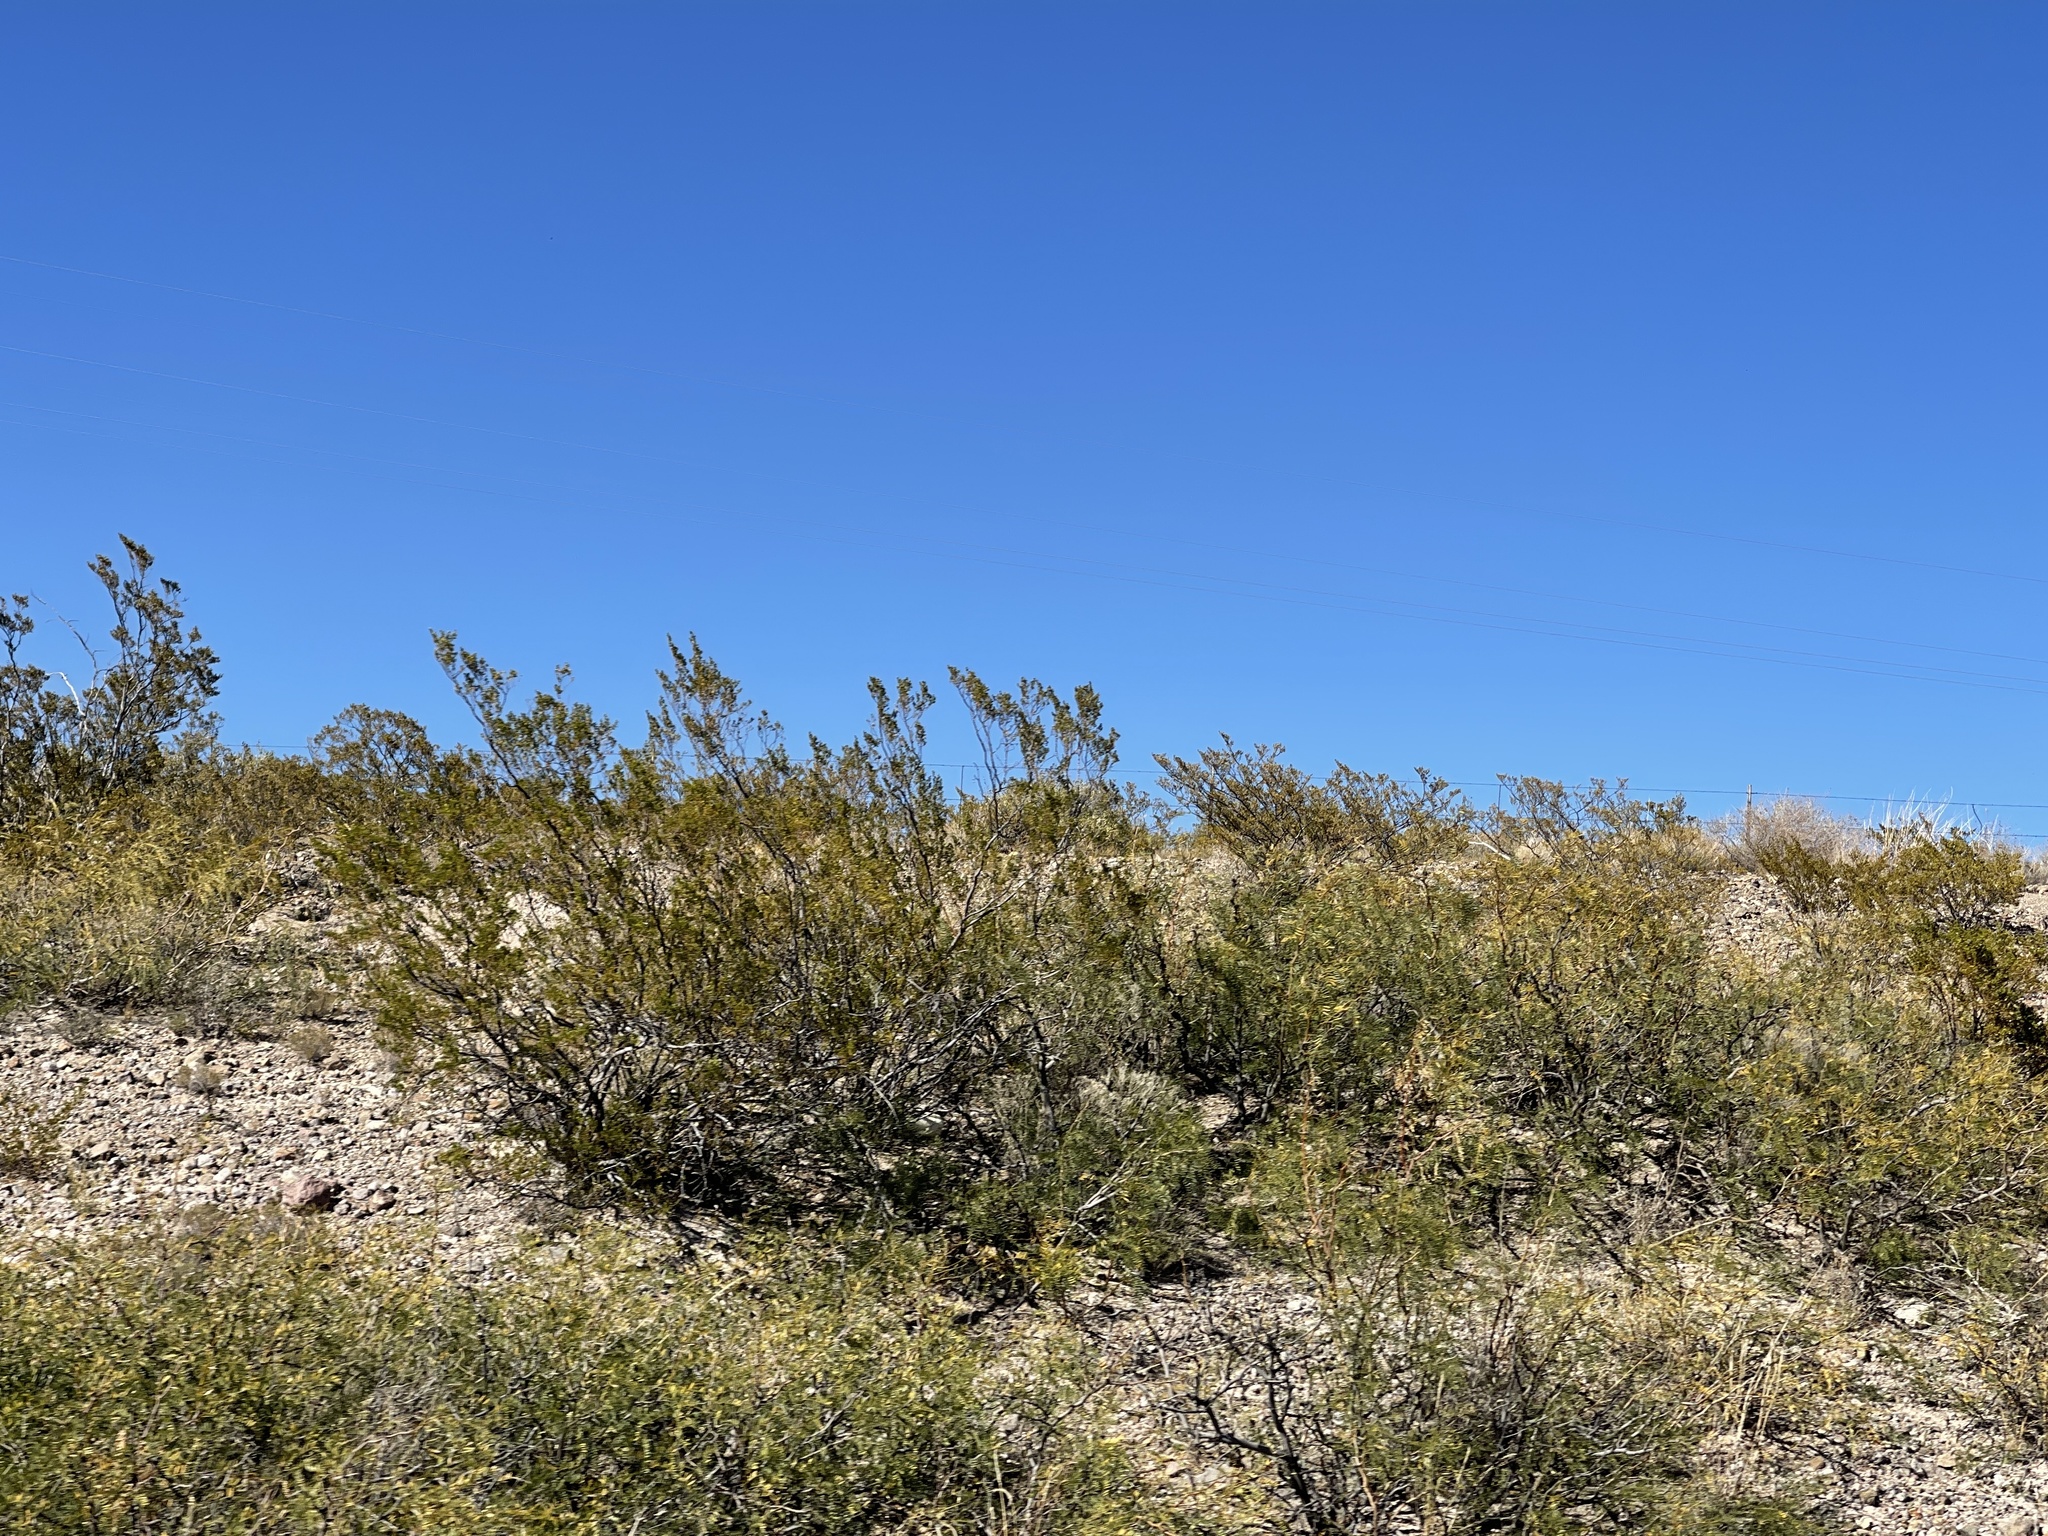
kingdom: Plantae
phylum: Tracheophyta
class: Magnoliopsida
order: Zygophyllales
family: Zygophyllaceae
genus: Larrea
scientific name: Larrea tridentata
